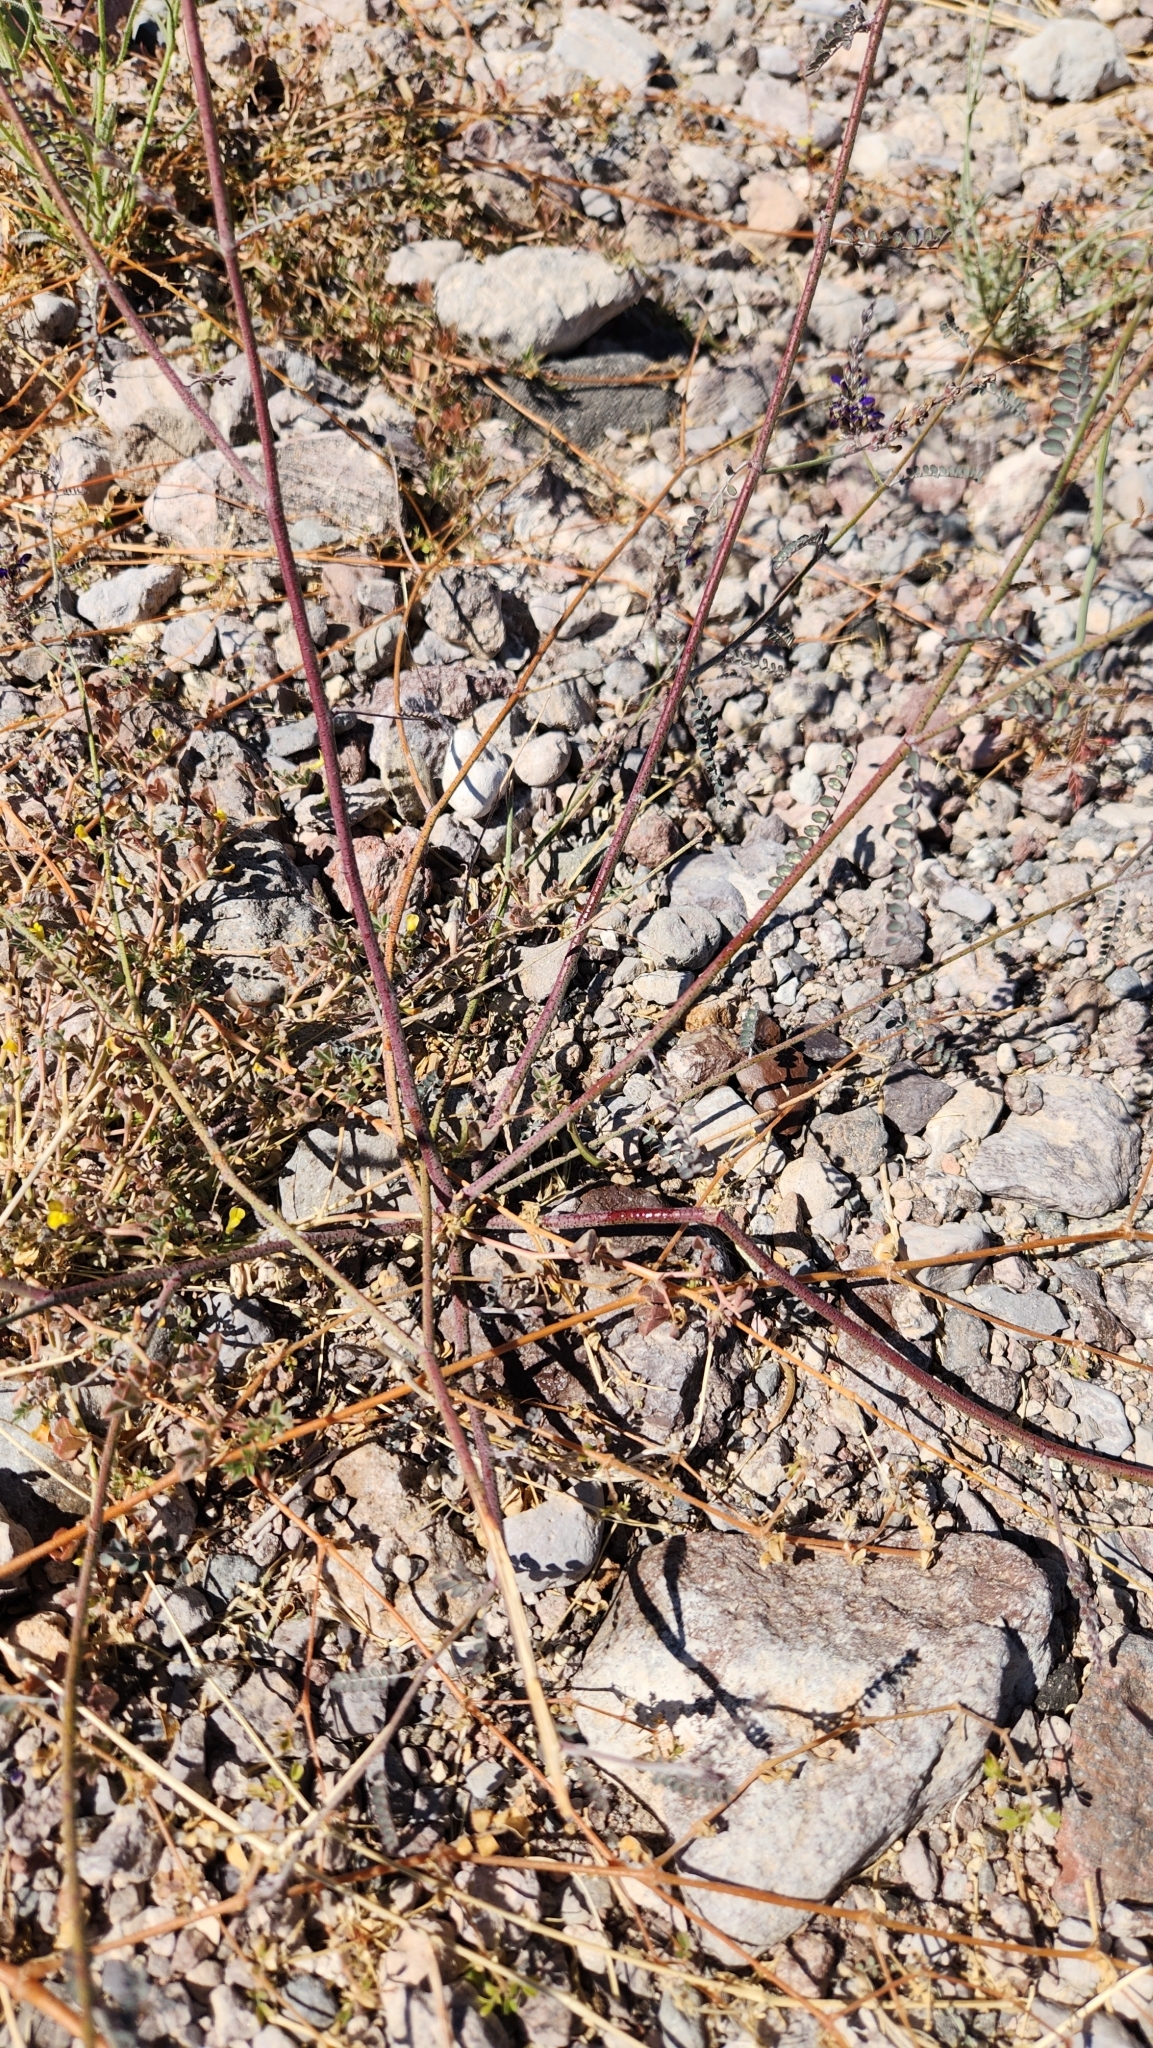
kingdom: Plantae
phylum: Tracheophyta
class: Magnoliopsida
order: Fabales
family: Fabaceae
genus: Marina
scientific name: Marina parryi
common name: Parry's marina
